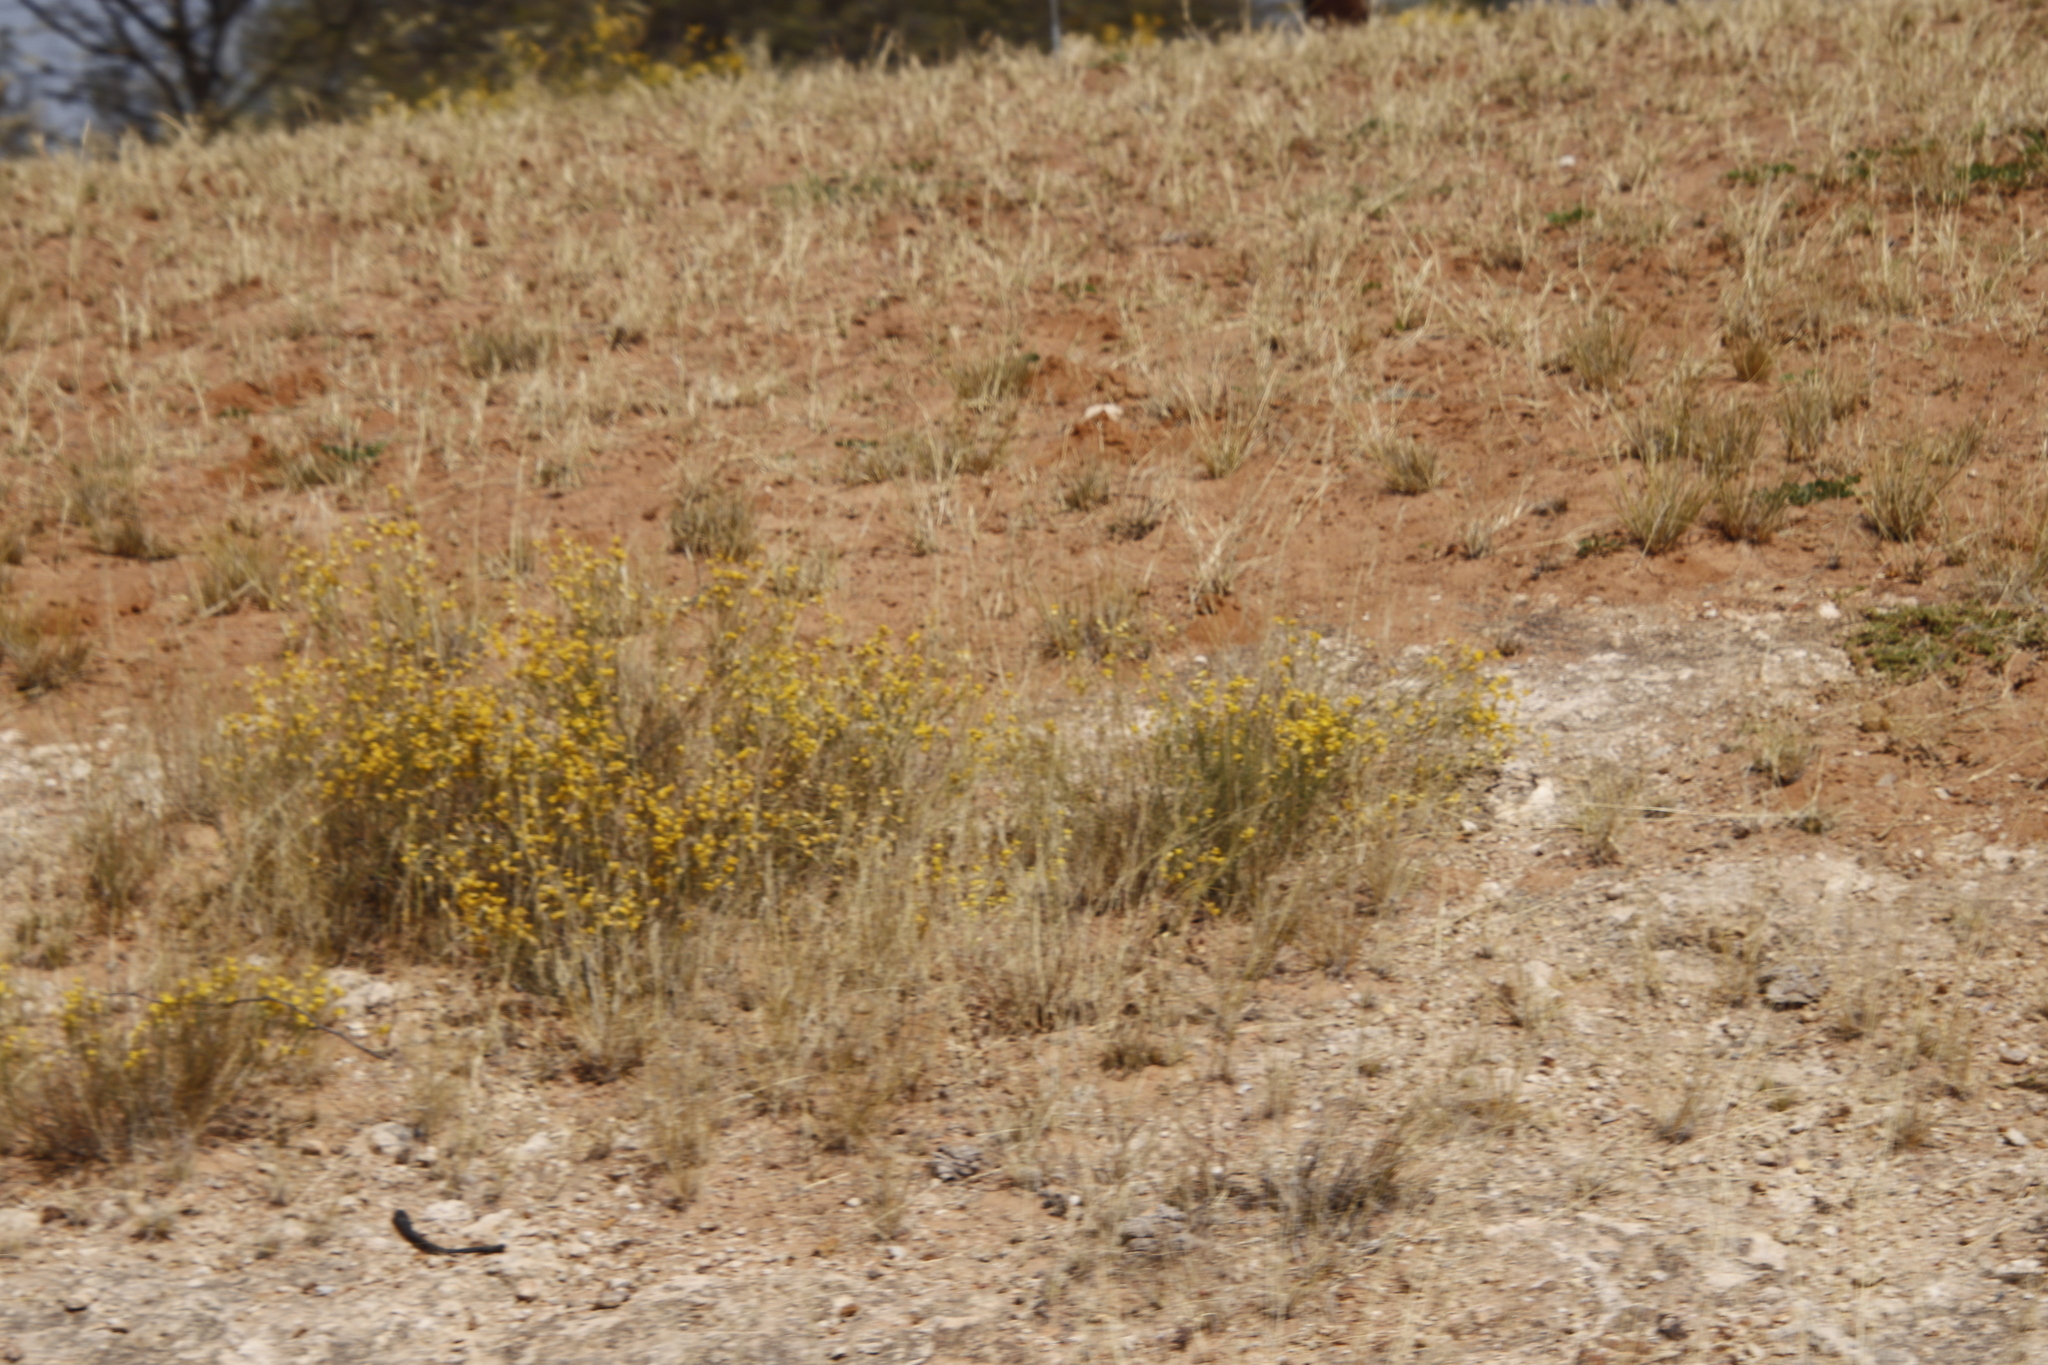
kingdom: Plantae
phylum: Tracheophyta
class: Magnoliopsida
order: Malvales
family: Thymelaeaceae
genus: Gnidia
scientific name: Gnidia polycephala
